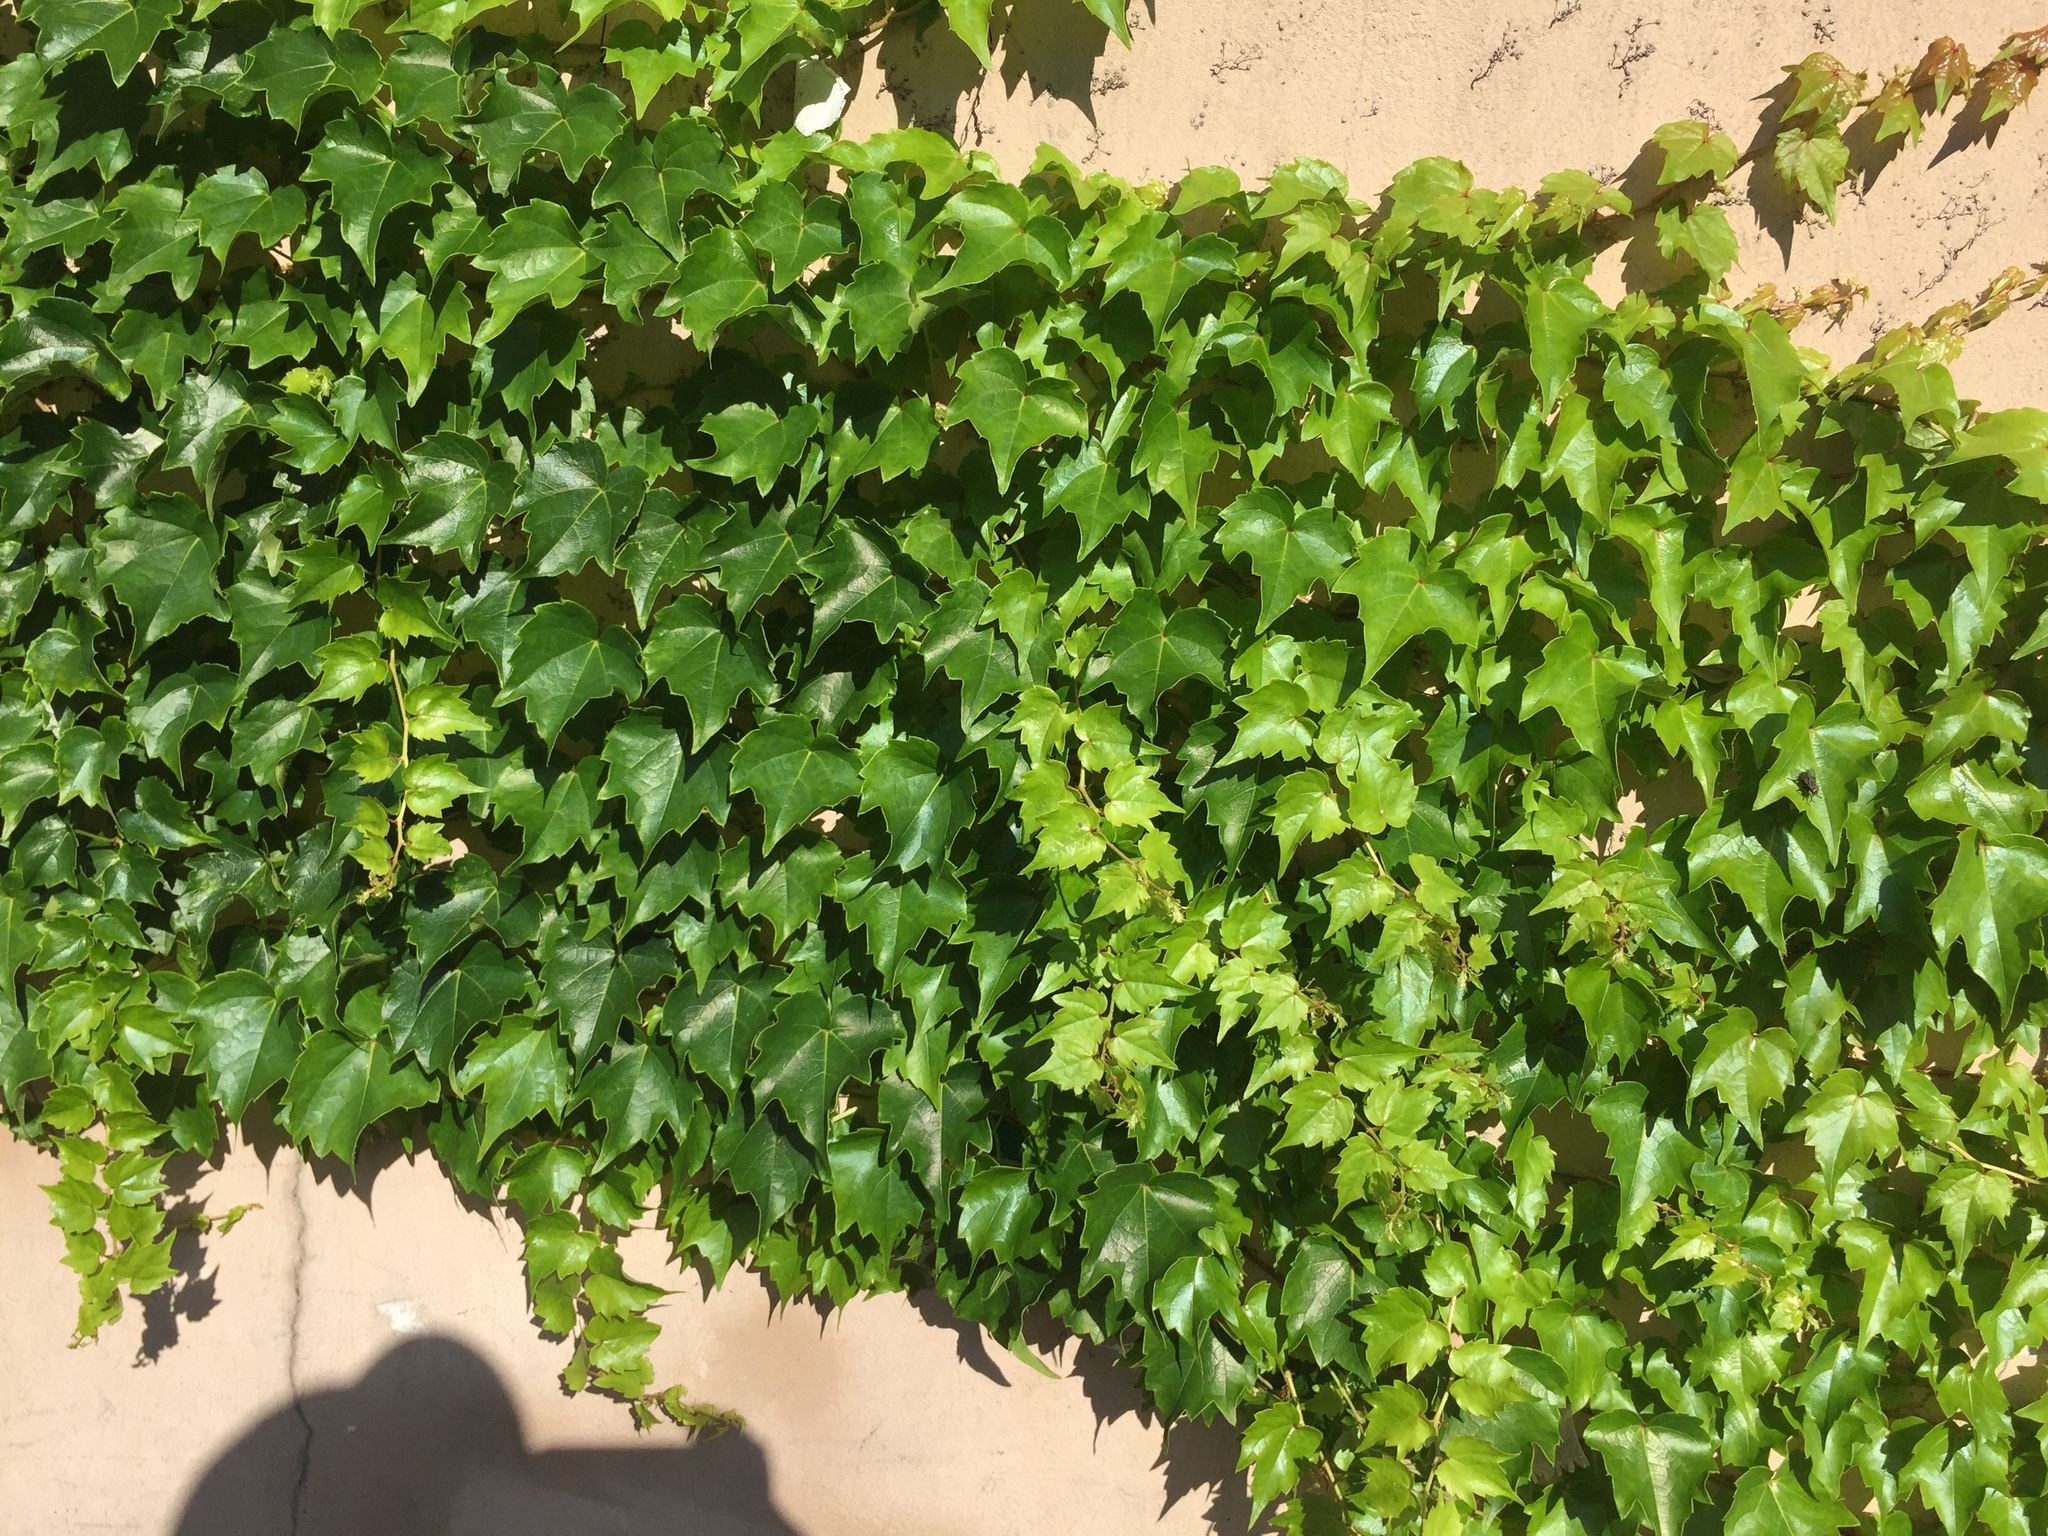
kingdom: Plantae
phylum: Tracheophyta
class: Magnoliopsida
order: Vitales
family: Vitaceae
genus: Parthenocissus
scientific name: Parthenocissus tricuspidata
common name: Boston ivy
